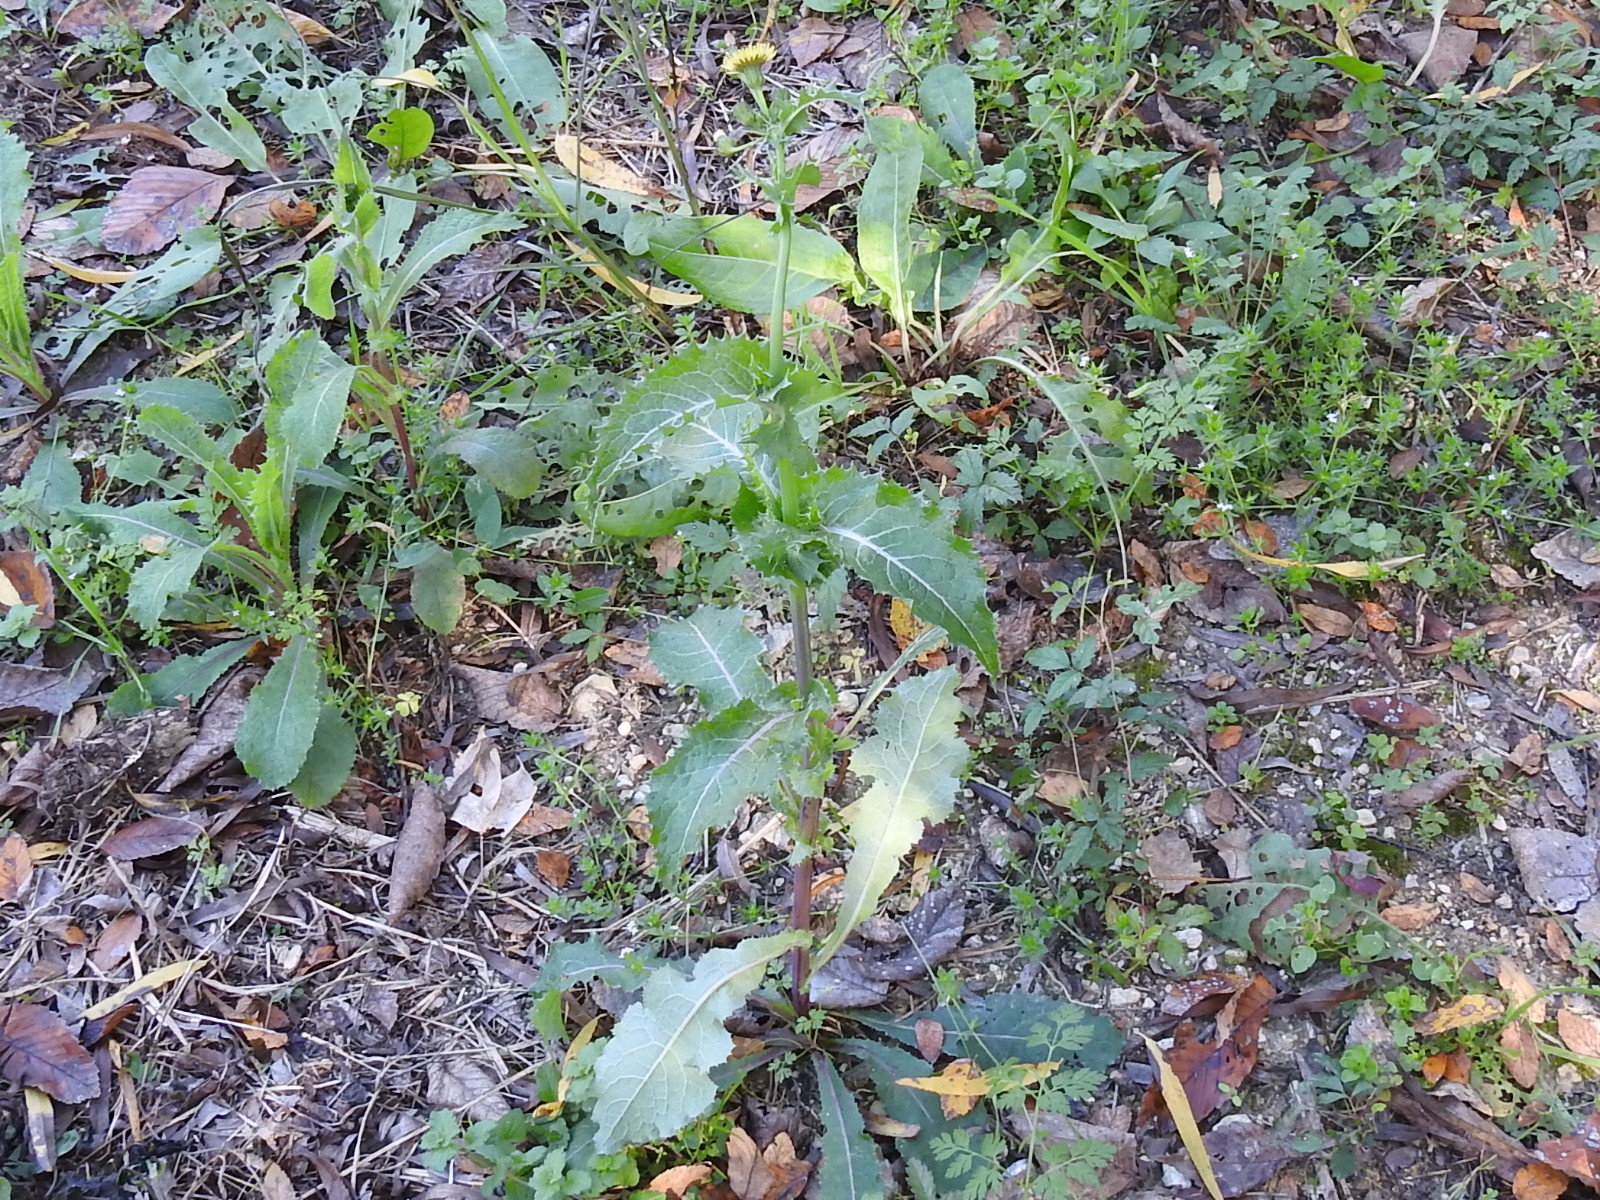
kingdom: Plantae
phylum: Tracheophyta
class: Magnoliopsida
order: Asterales
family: Asteraceae
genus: Sonchus
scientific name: Sonchus asper
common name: Prickly sow-thistle
